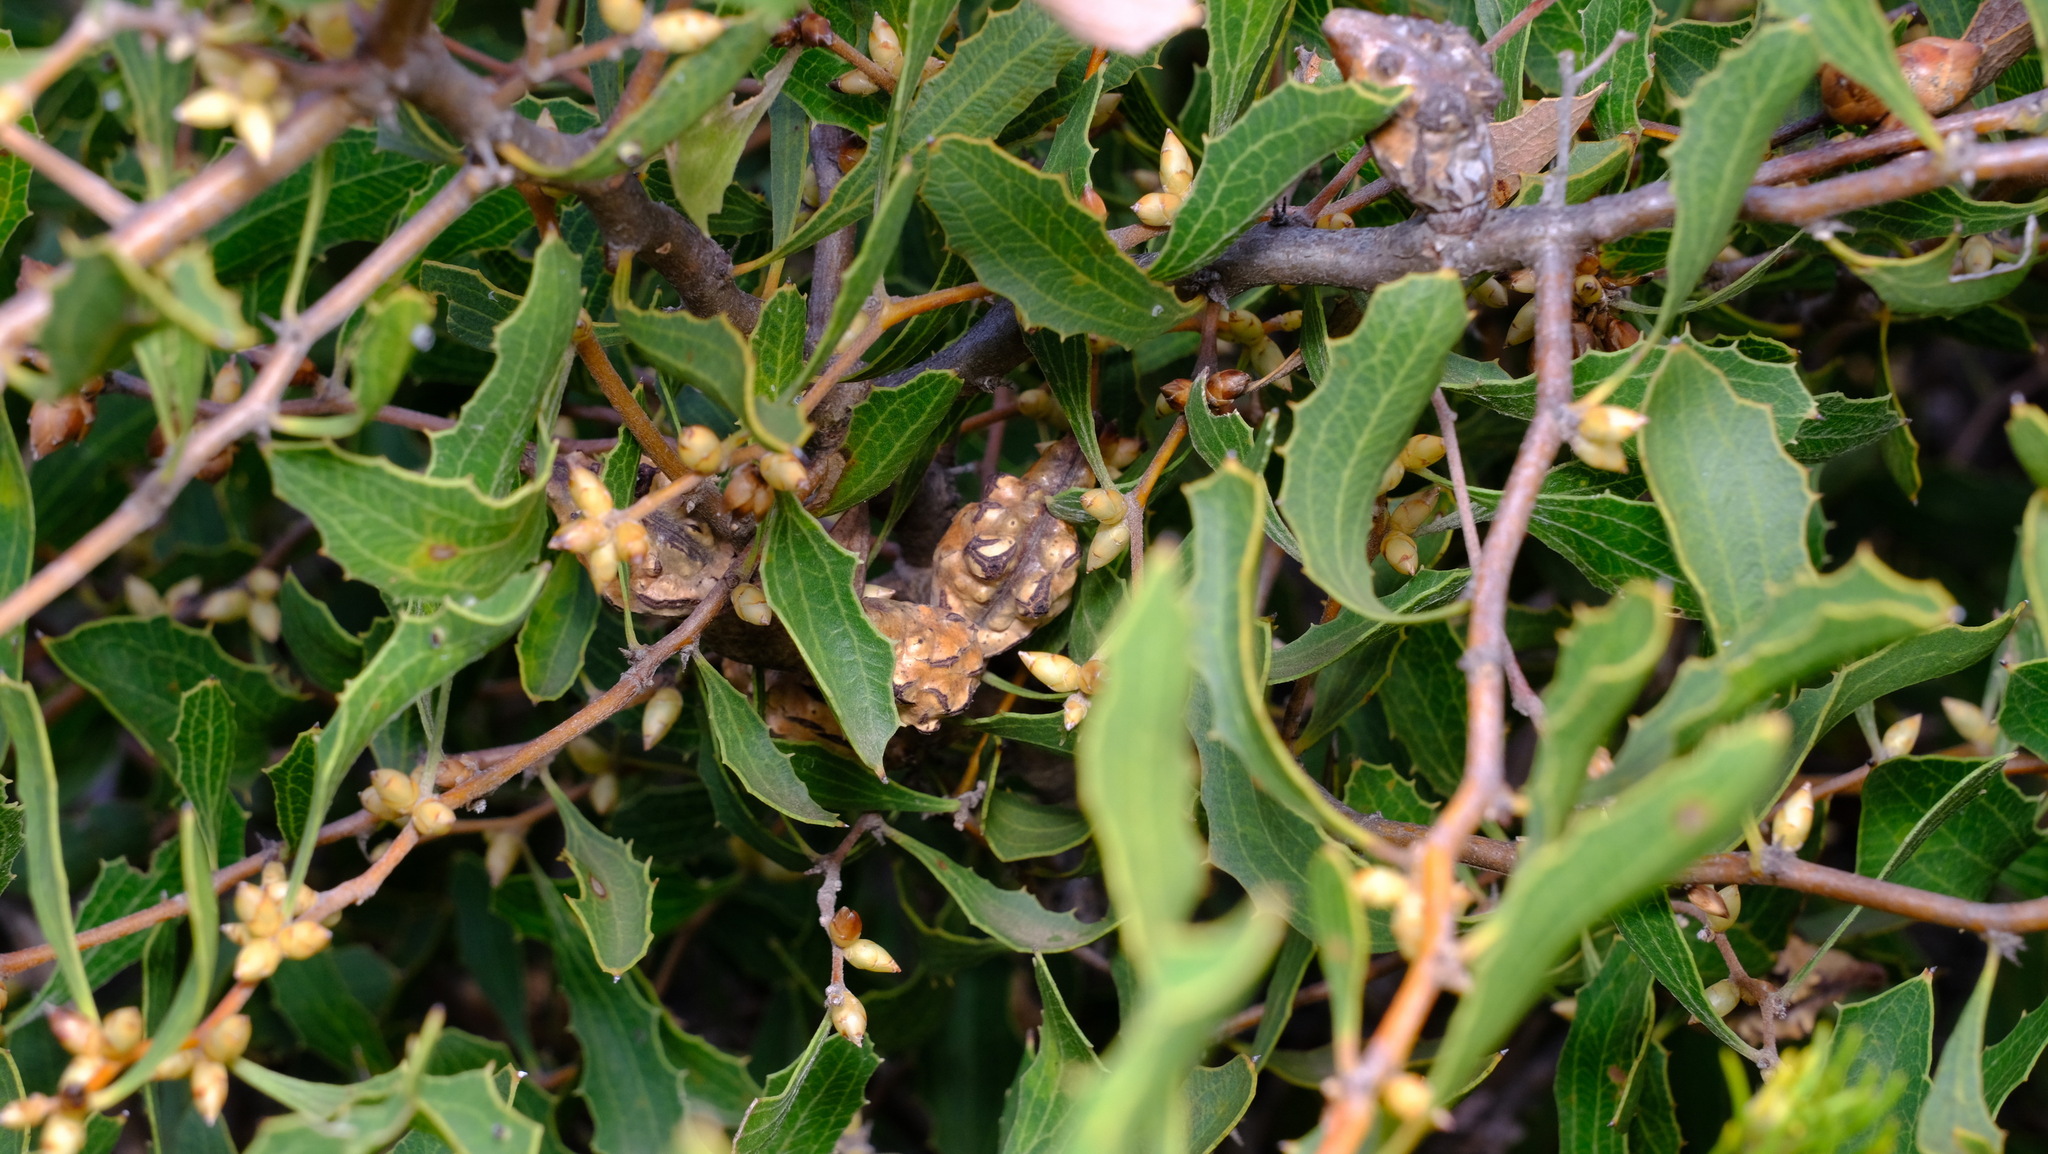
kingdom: Plantae
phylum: Tracheophyta
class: Magnoliopsida
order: Proteales
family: Proteaceae
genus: Hakea
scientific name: Hakea anadenia
